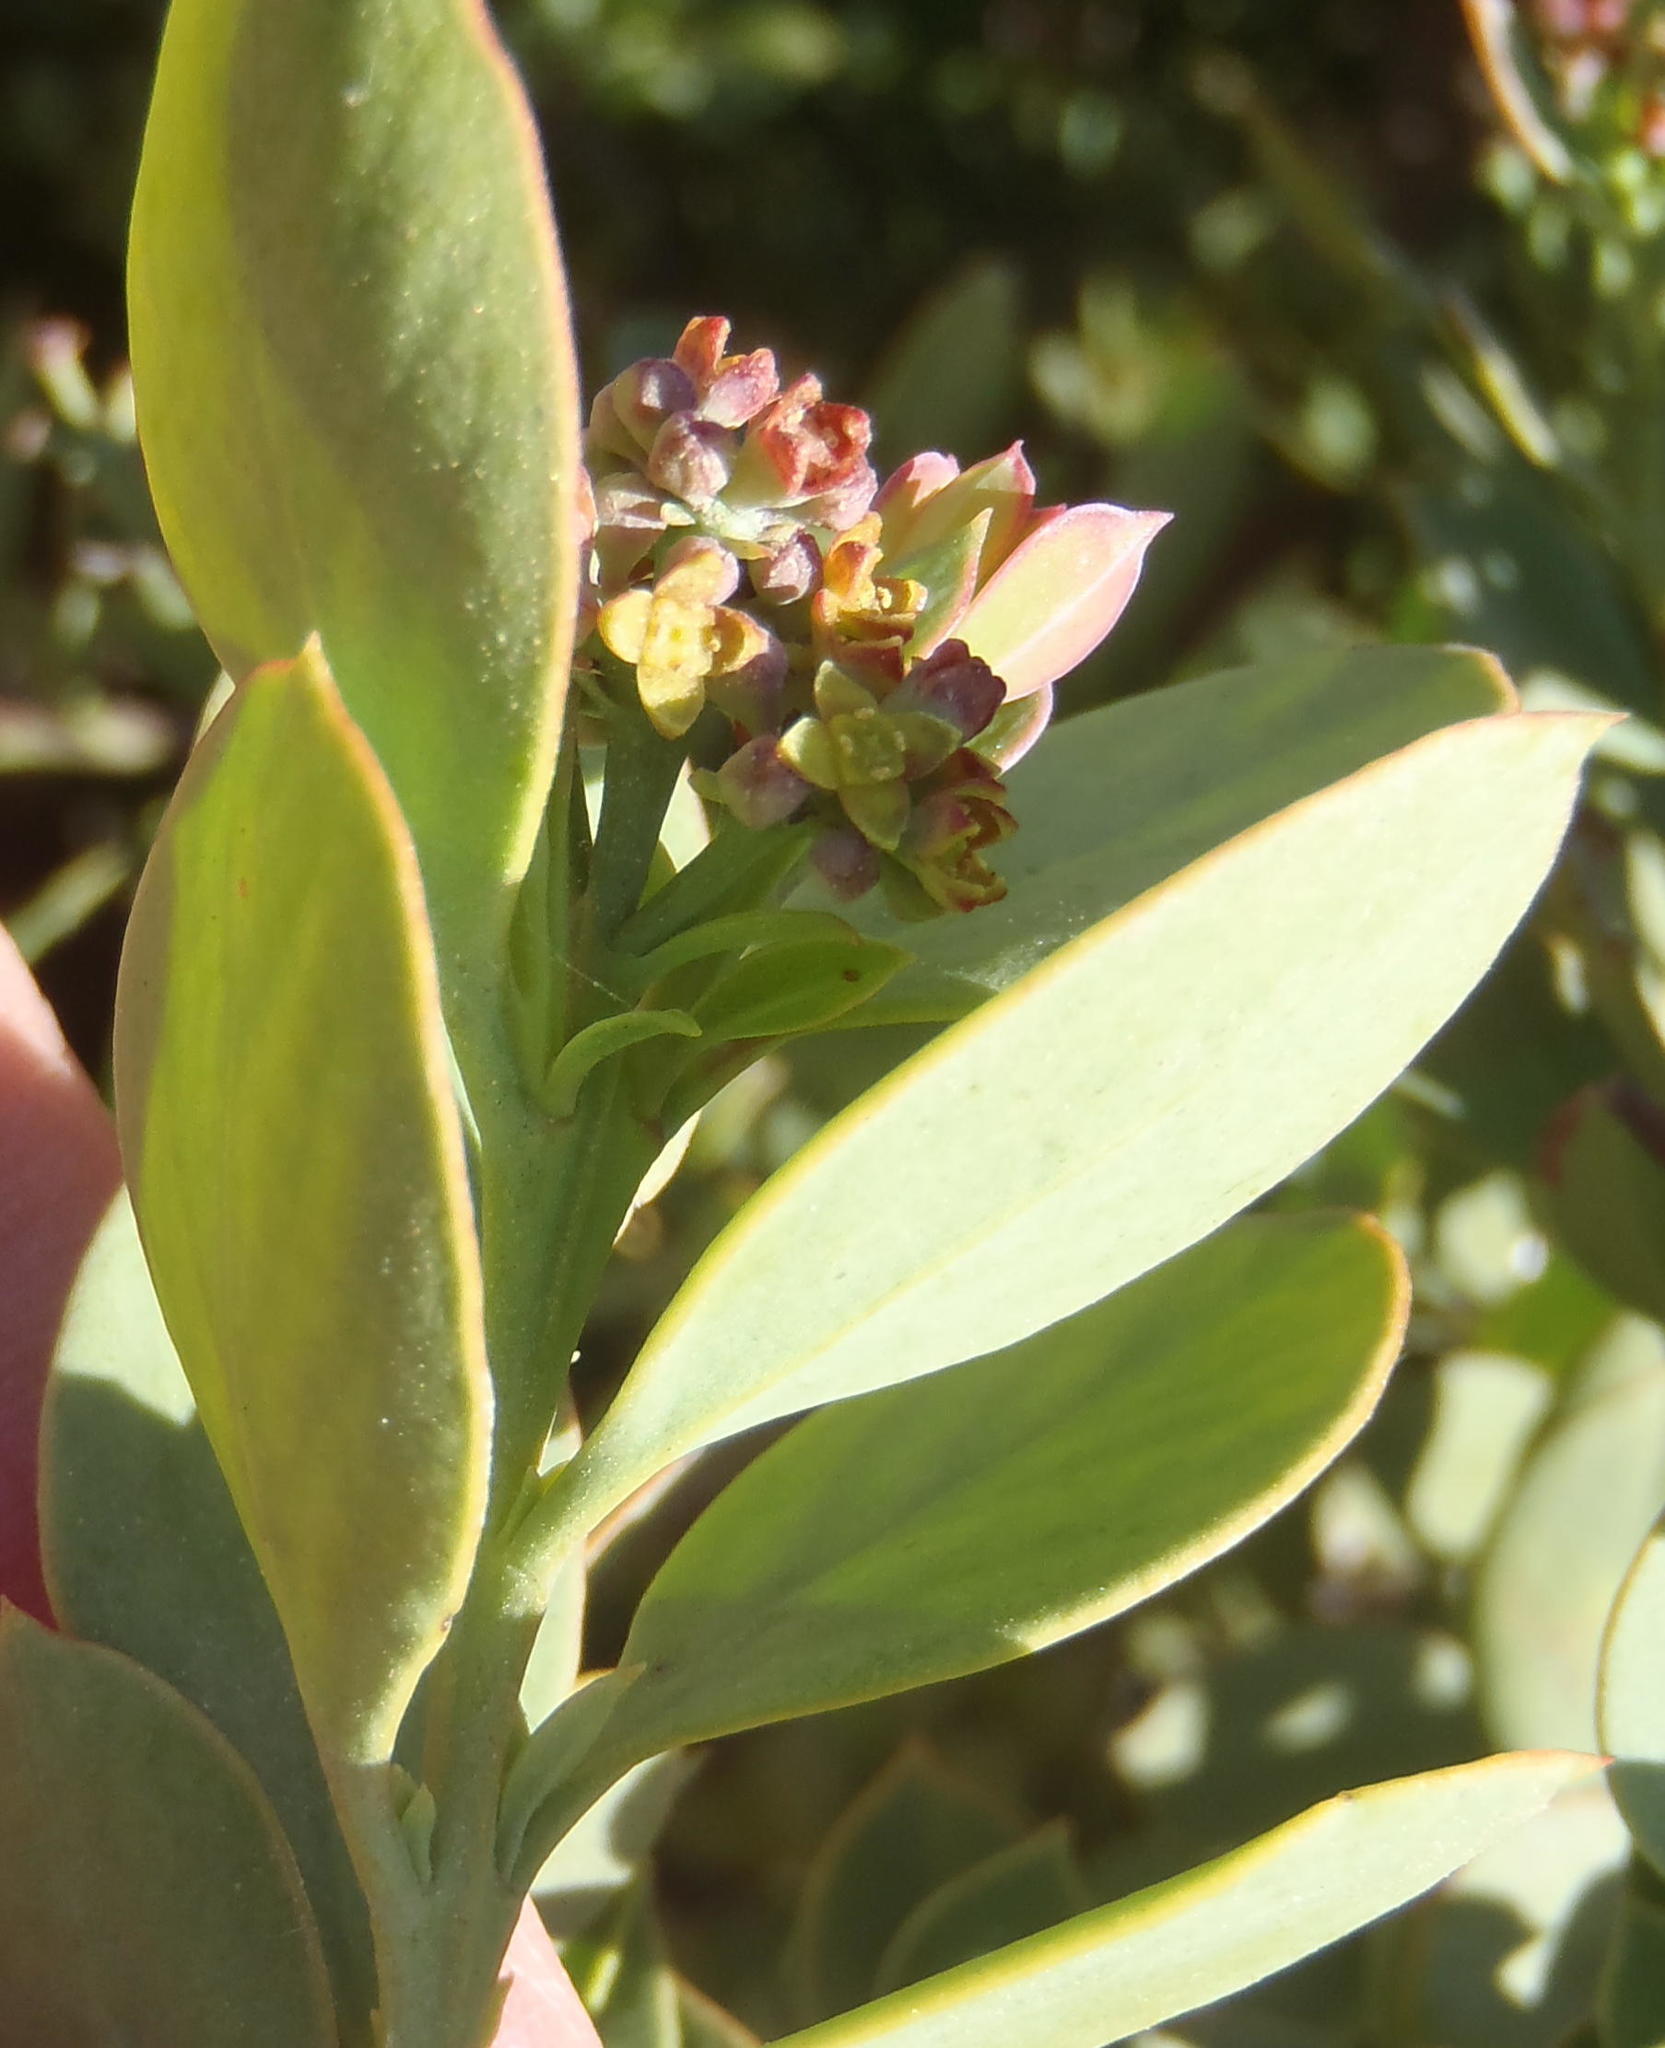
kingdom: Plantae
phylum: Tracheophyta
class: Magnoliopsida
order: Santalales
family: Santalaceae
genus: Osyris
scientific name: Osyris compressa
